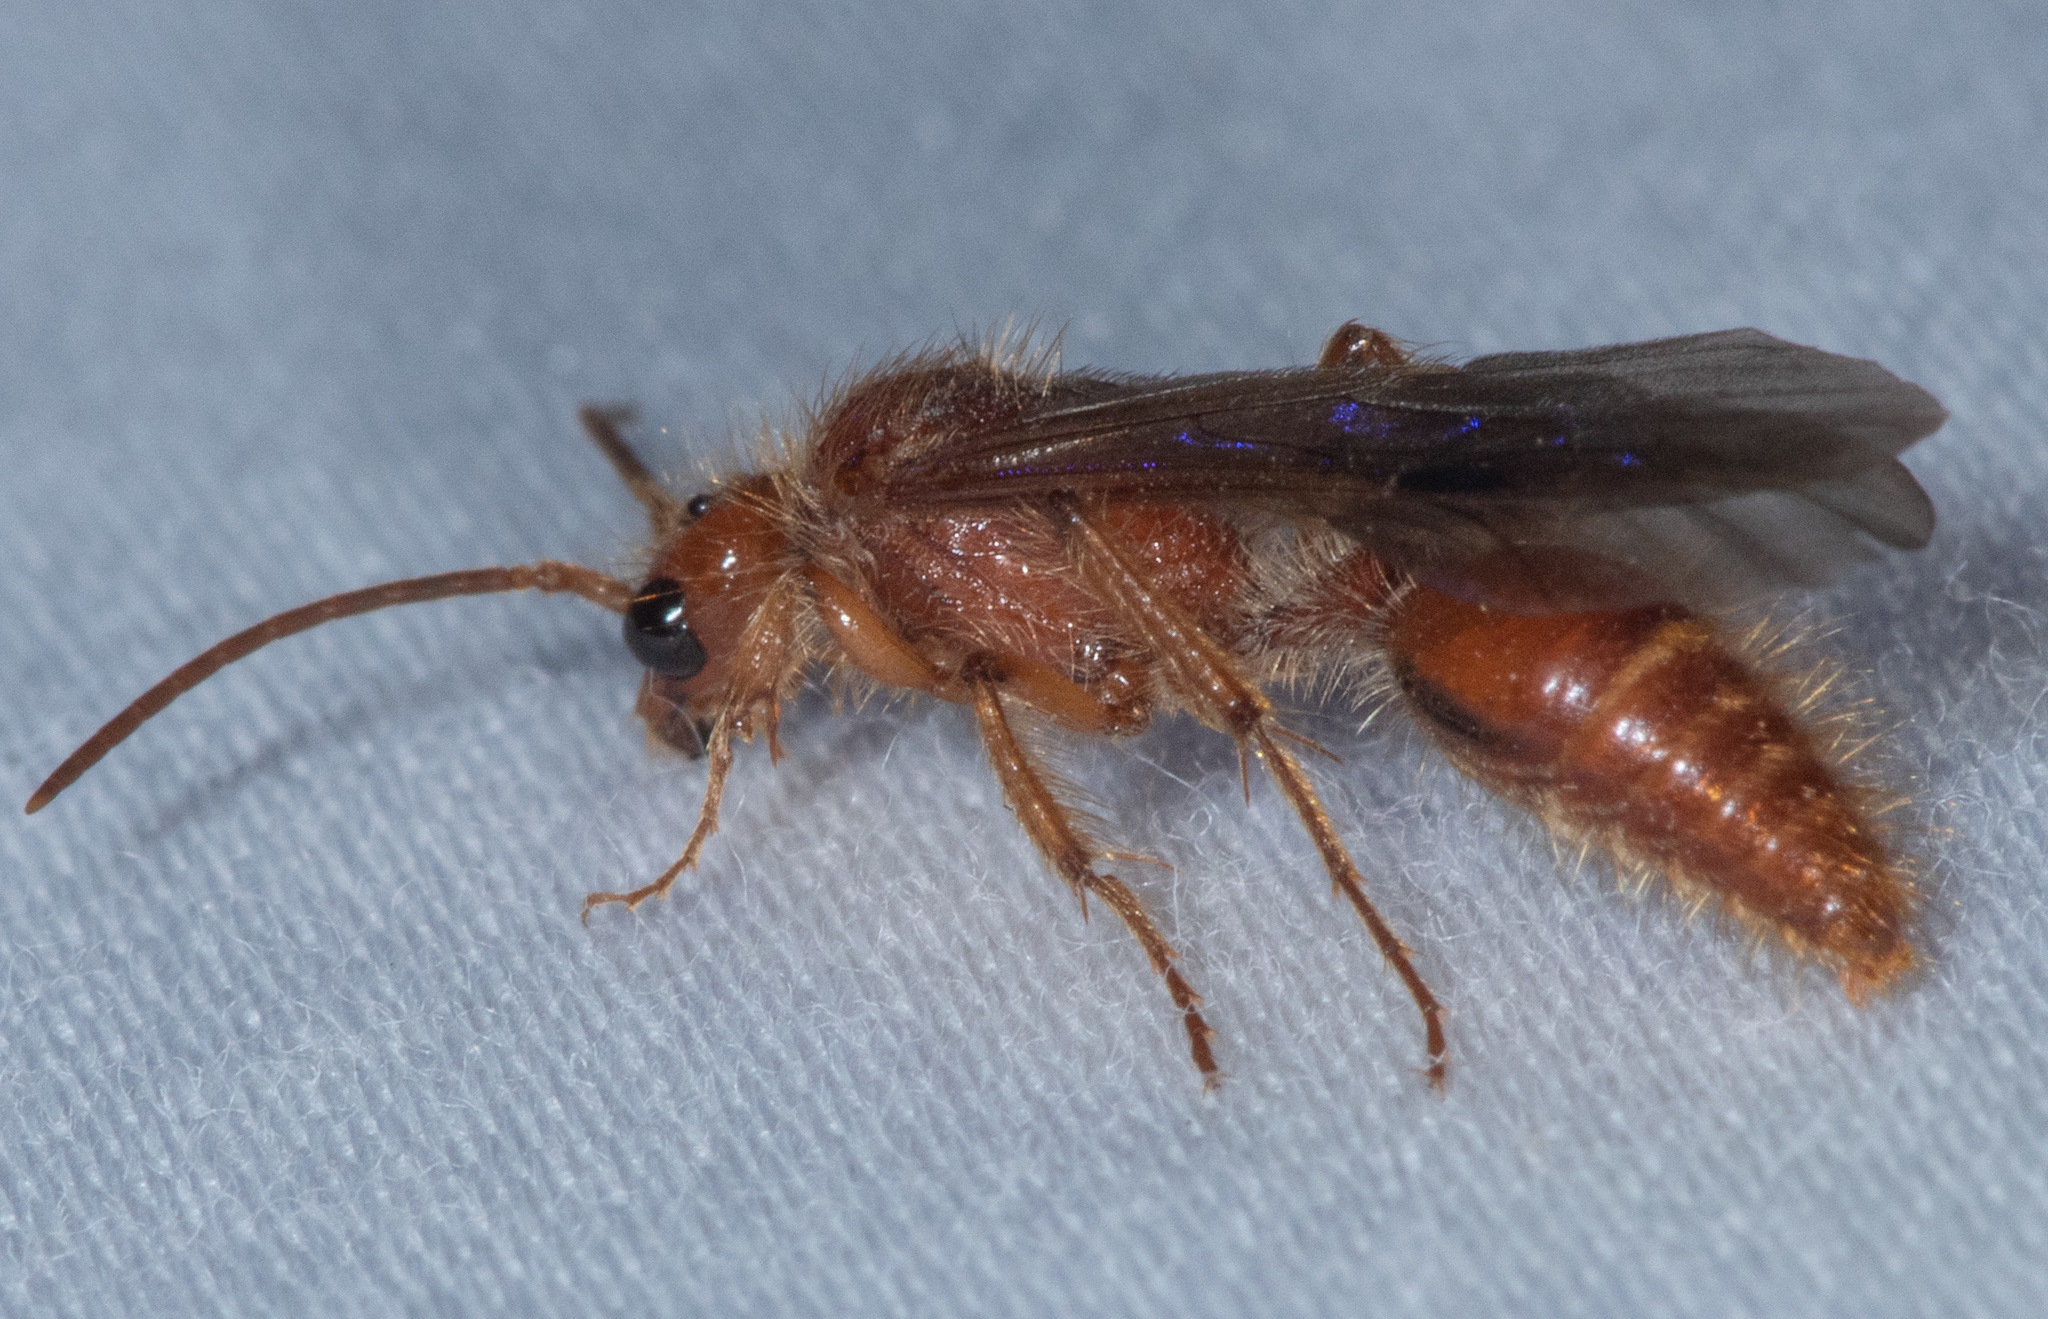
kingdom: Animalia
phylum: Arthropoda
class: Insecta
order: Hymenoptera
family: Mutillidae
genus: Odontophotopsis
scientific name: Odontophotopsis melicausa
